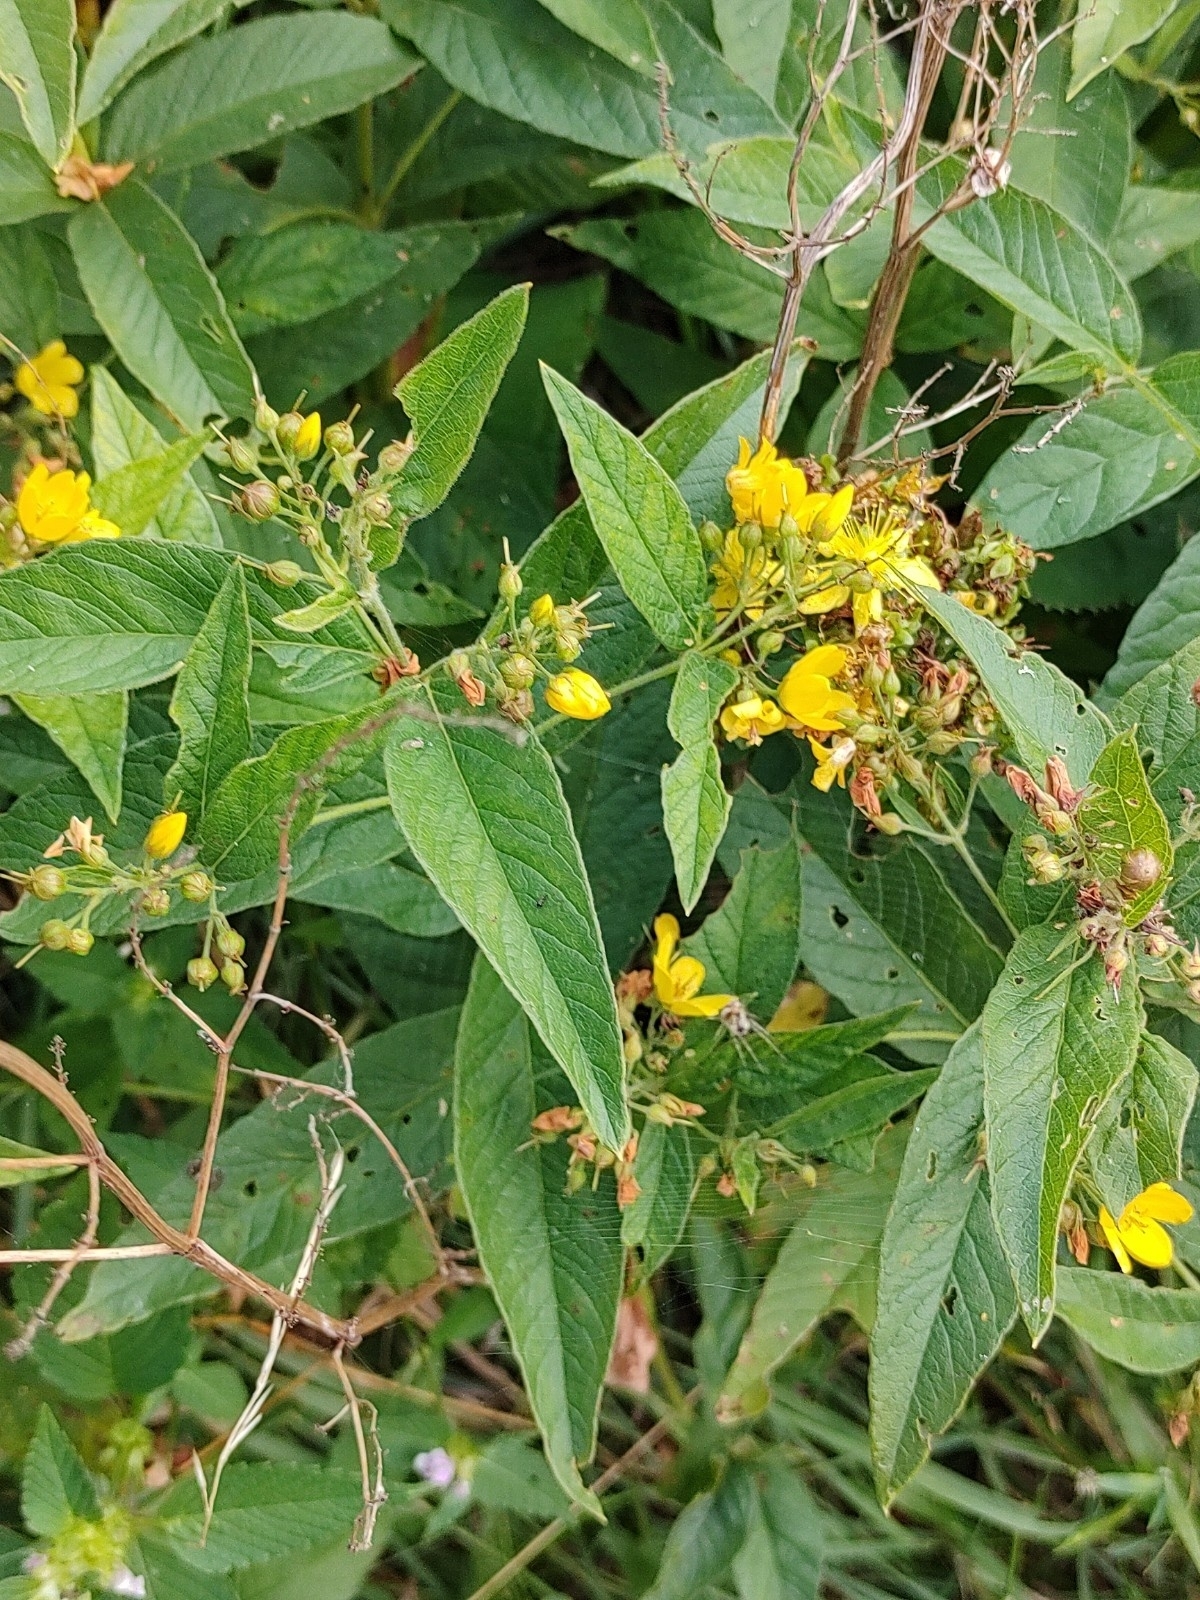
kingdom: Plantae
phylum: Tracheophyta
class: Magnoliopsida
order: Ericales
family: Primulaceae
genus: Lysimachia
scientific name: Lysimachia vulgaris
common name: Yellow loosestrife
